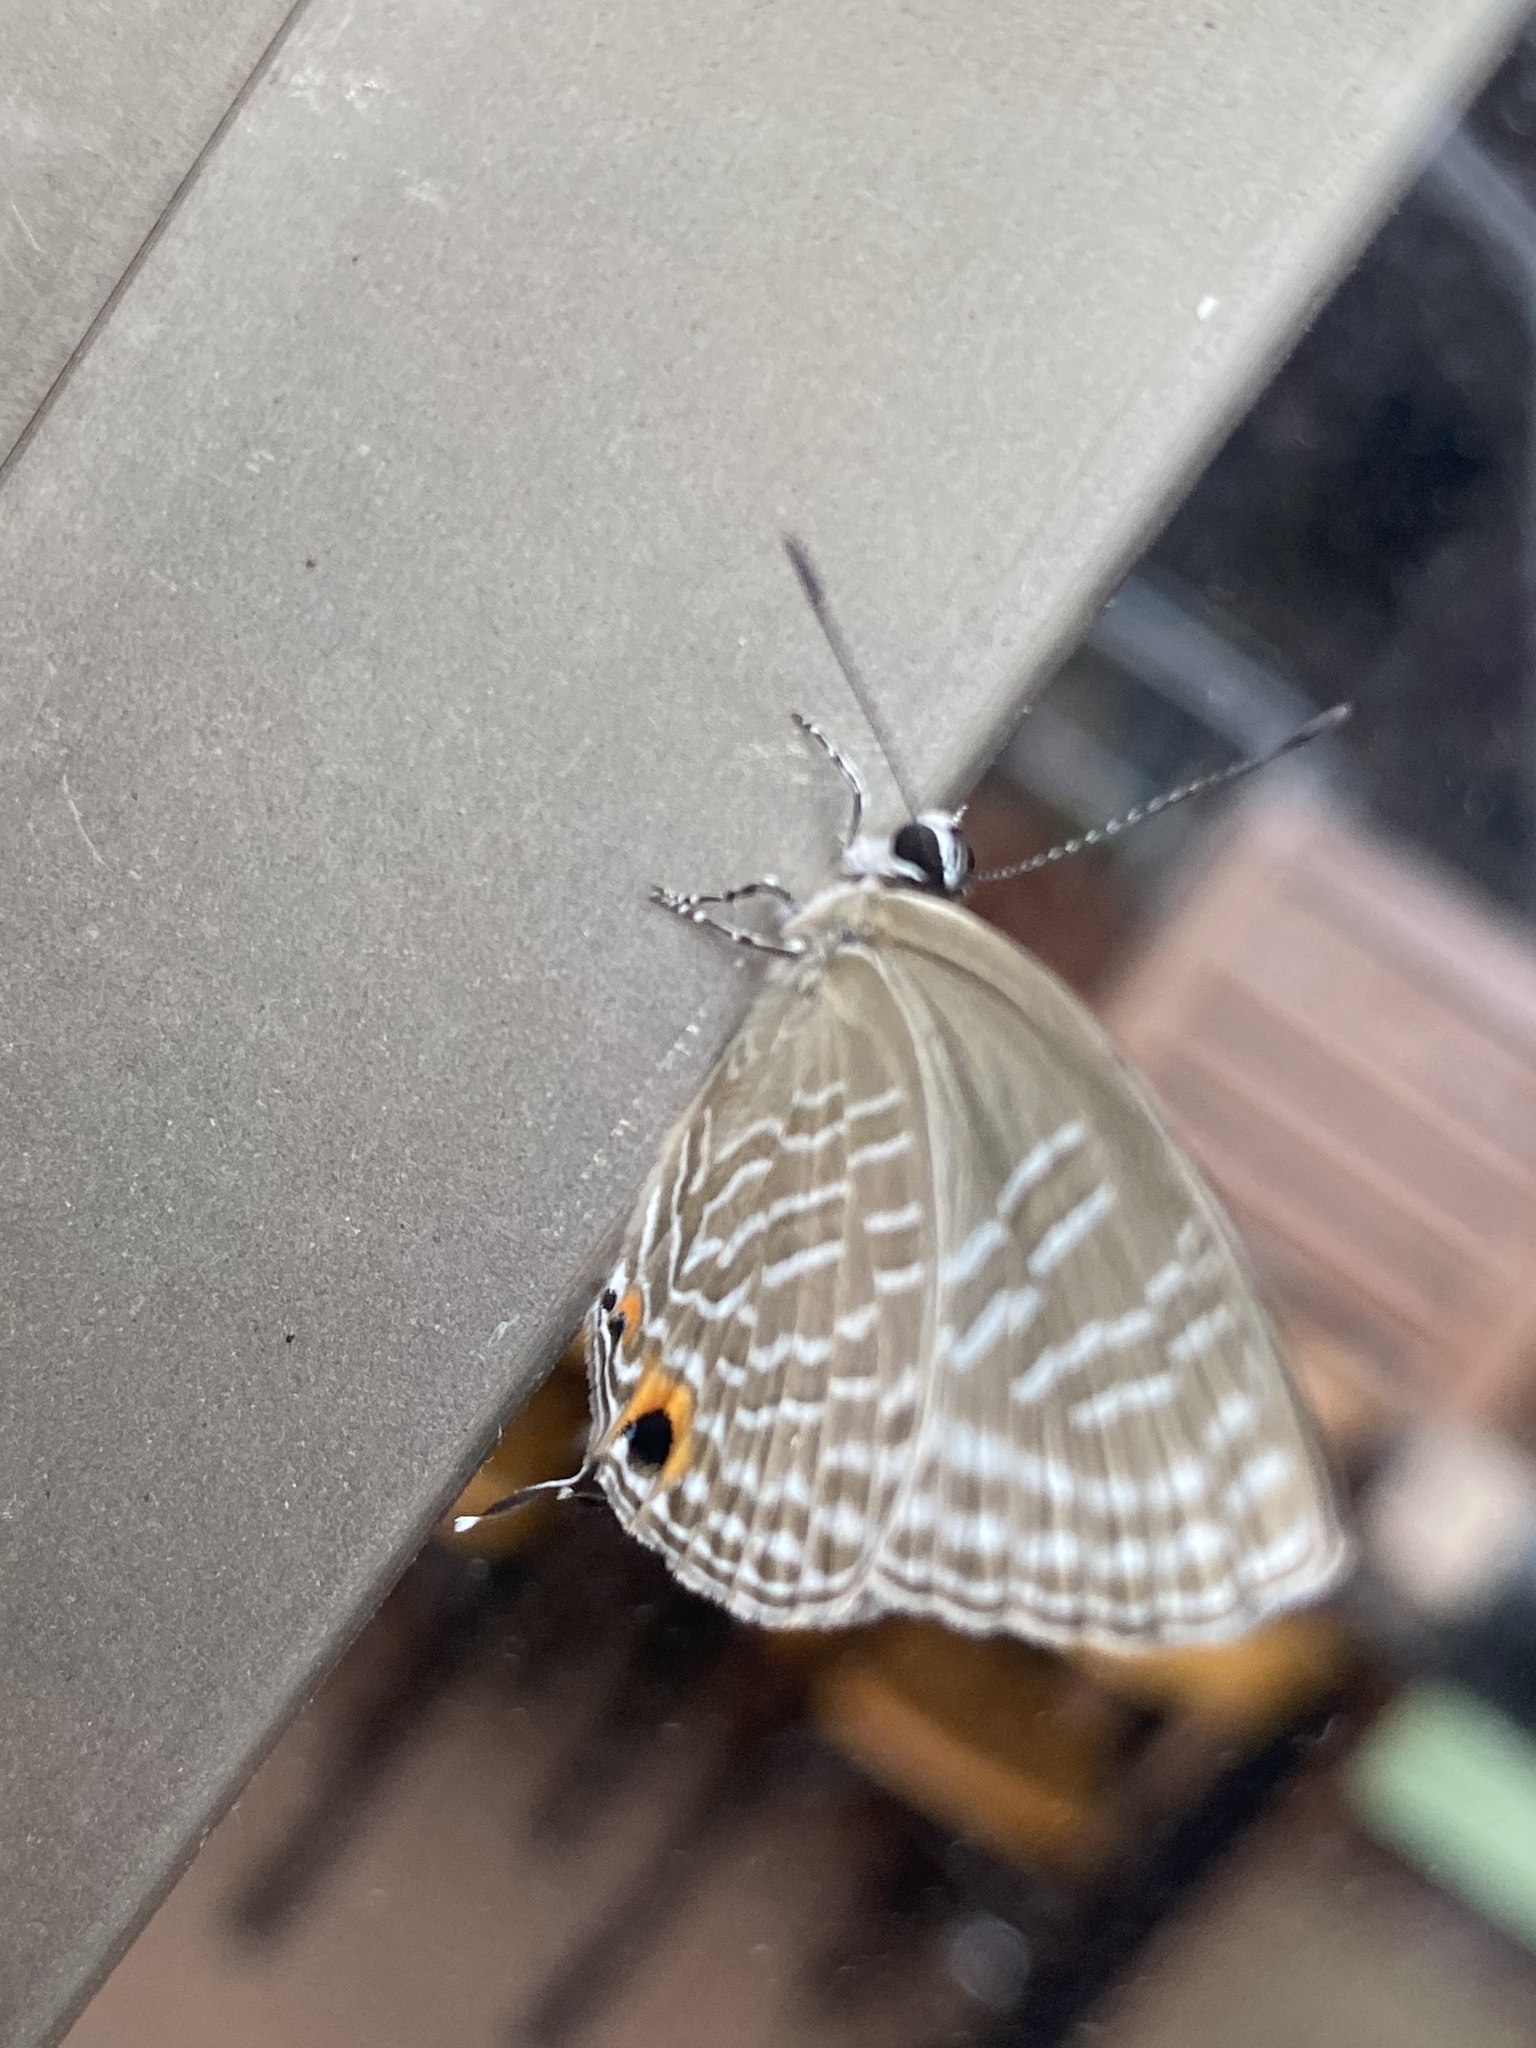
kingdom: Animalia
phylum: Arthropoda
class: Insecta
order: Lepidoptera
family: Lycaenidae
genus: Jamides
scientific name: Jamides alecto
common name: Metallic cerulean
